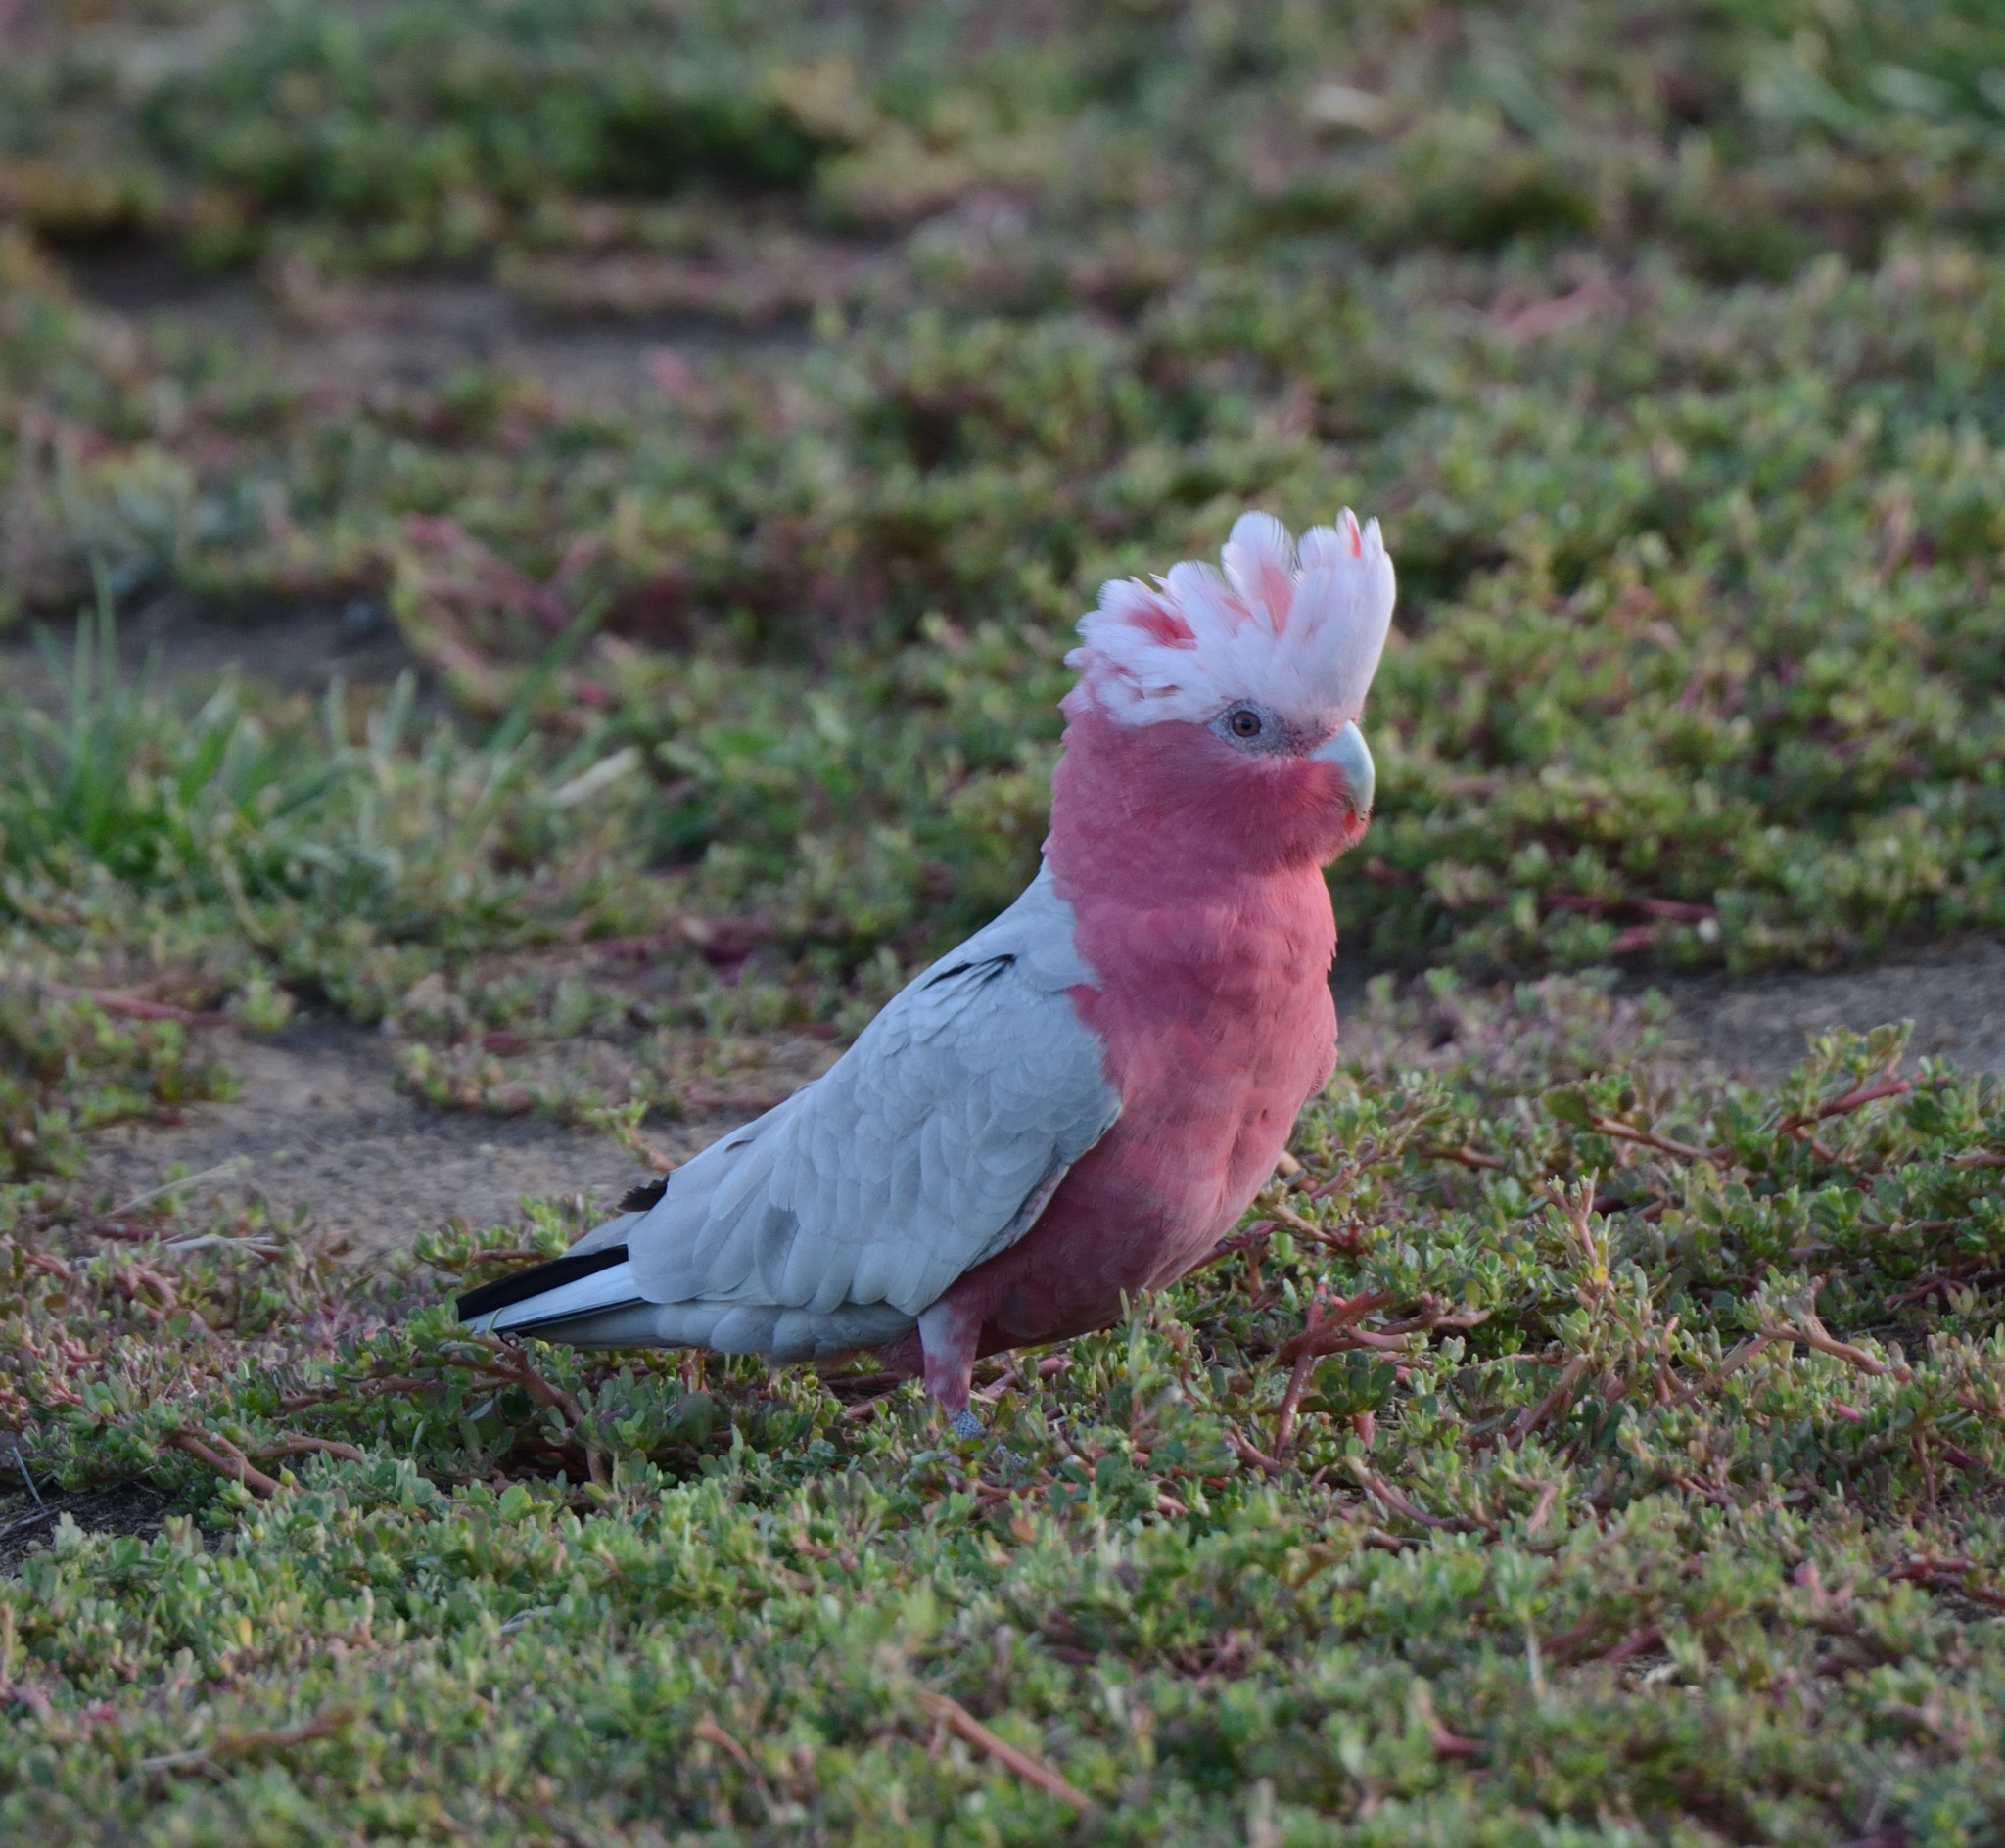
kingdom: Animalia
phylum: Chordata
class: Aves
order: Psittaciformes
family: Psittacidae
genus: Eolophus
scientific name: Eolophus roseicapilla
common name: Galah
